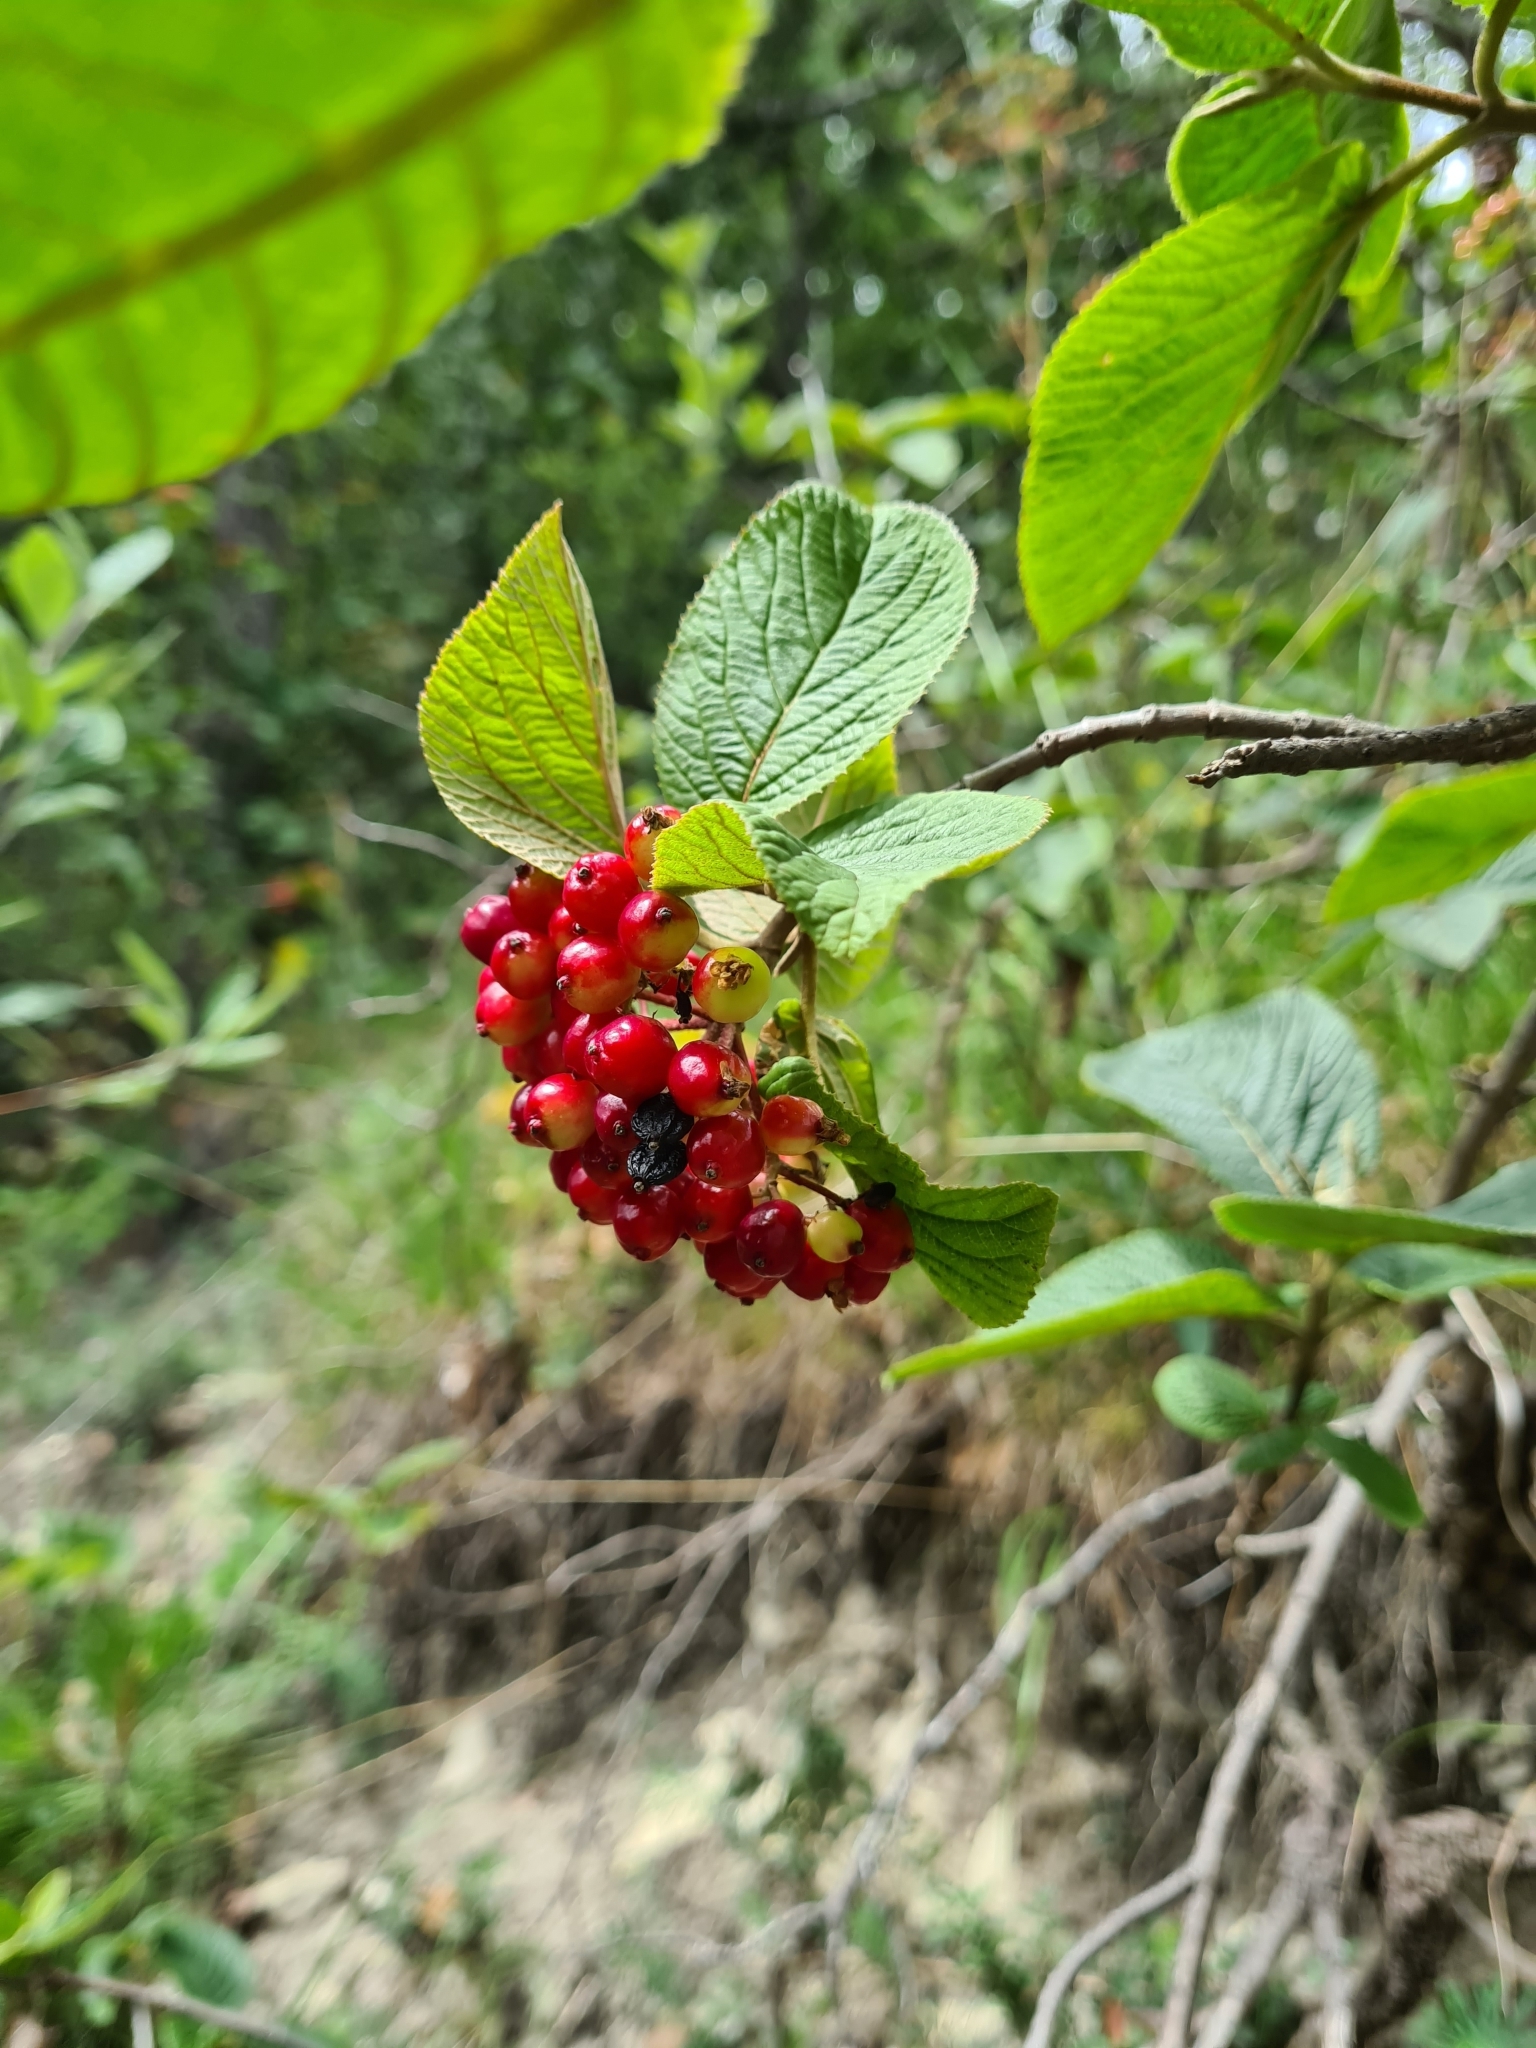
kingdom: Plantae
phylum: Tracheophyta
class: Magnoliopsida
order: Dipsacales
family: Viburnaceae
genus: Viburnum
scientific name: Viburnum lantana
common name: Wayfaring tree
